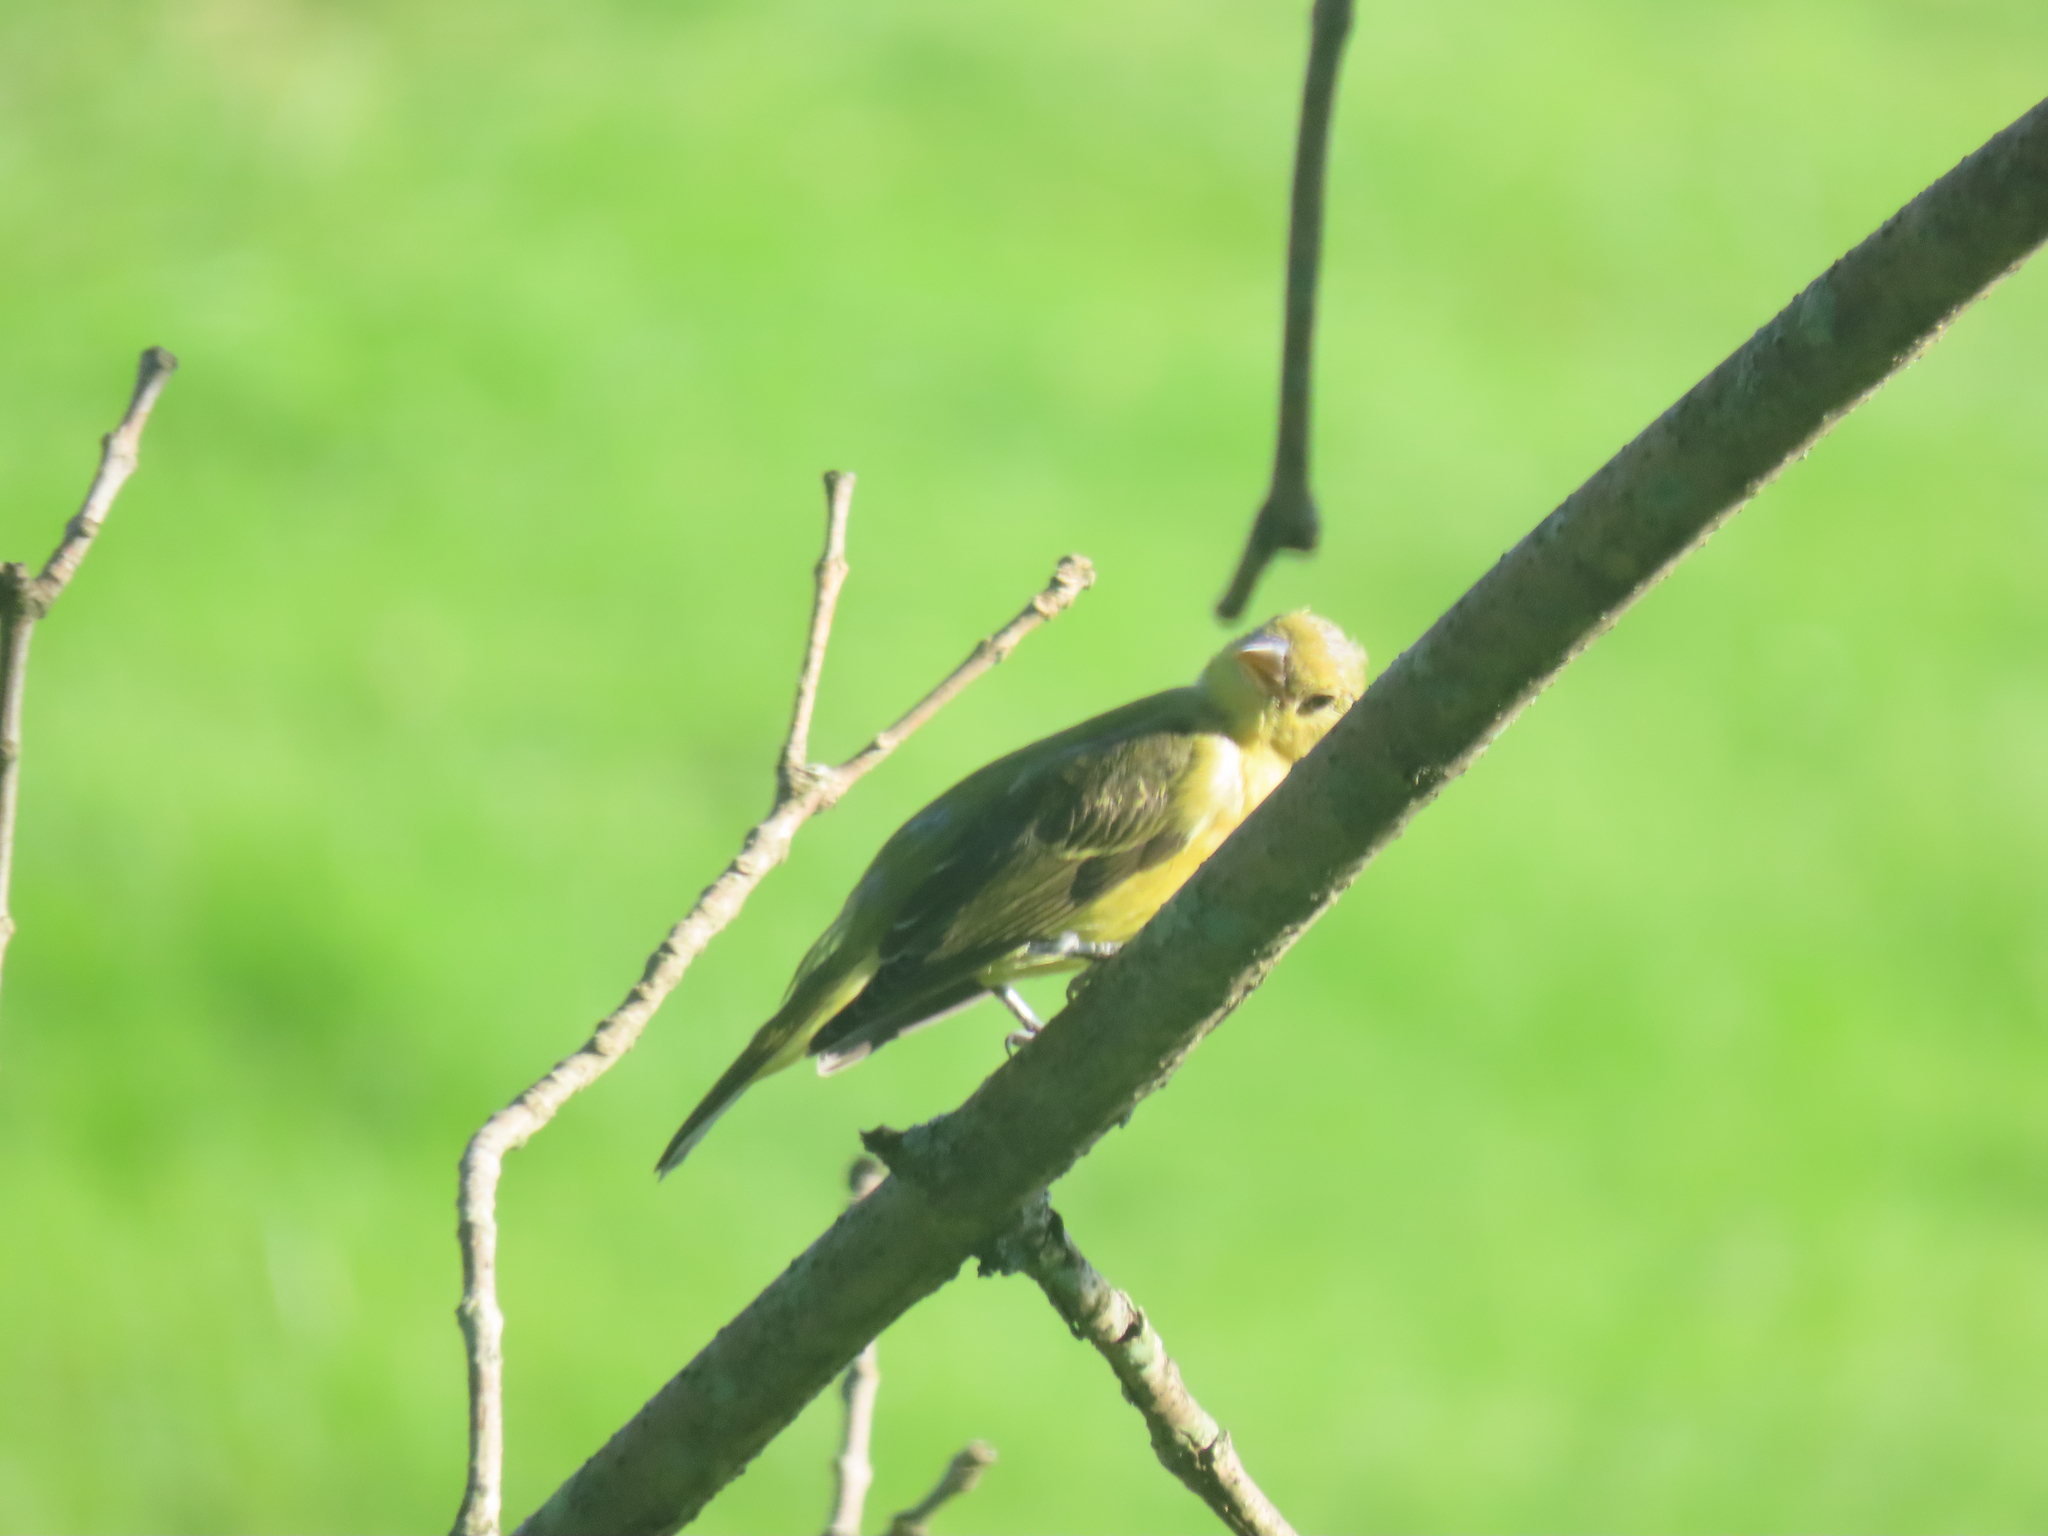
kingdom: Animalia
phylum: Chordata
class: Aves
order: Passeriformes
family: Cardinalidae
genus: Piranga
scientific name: Piranga olivacea
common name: Scarlet tanager
